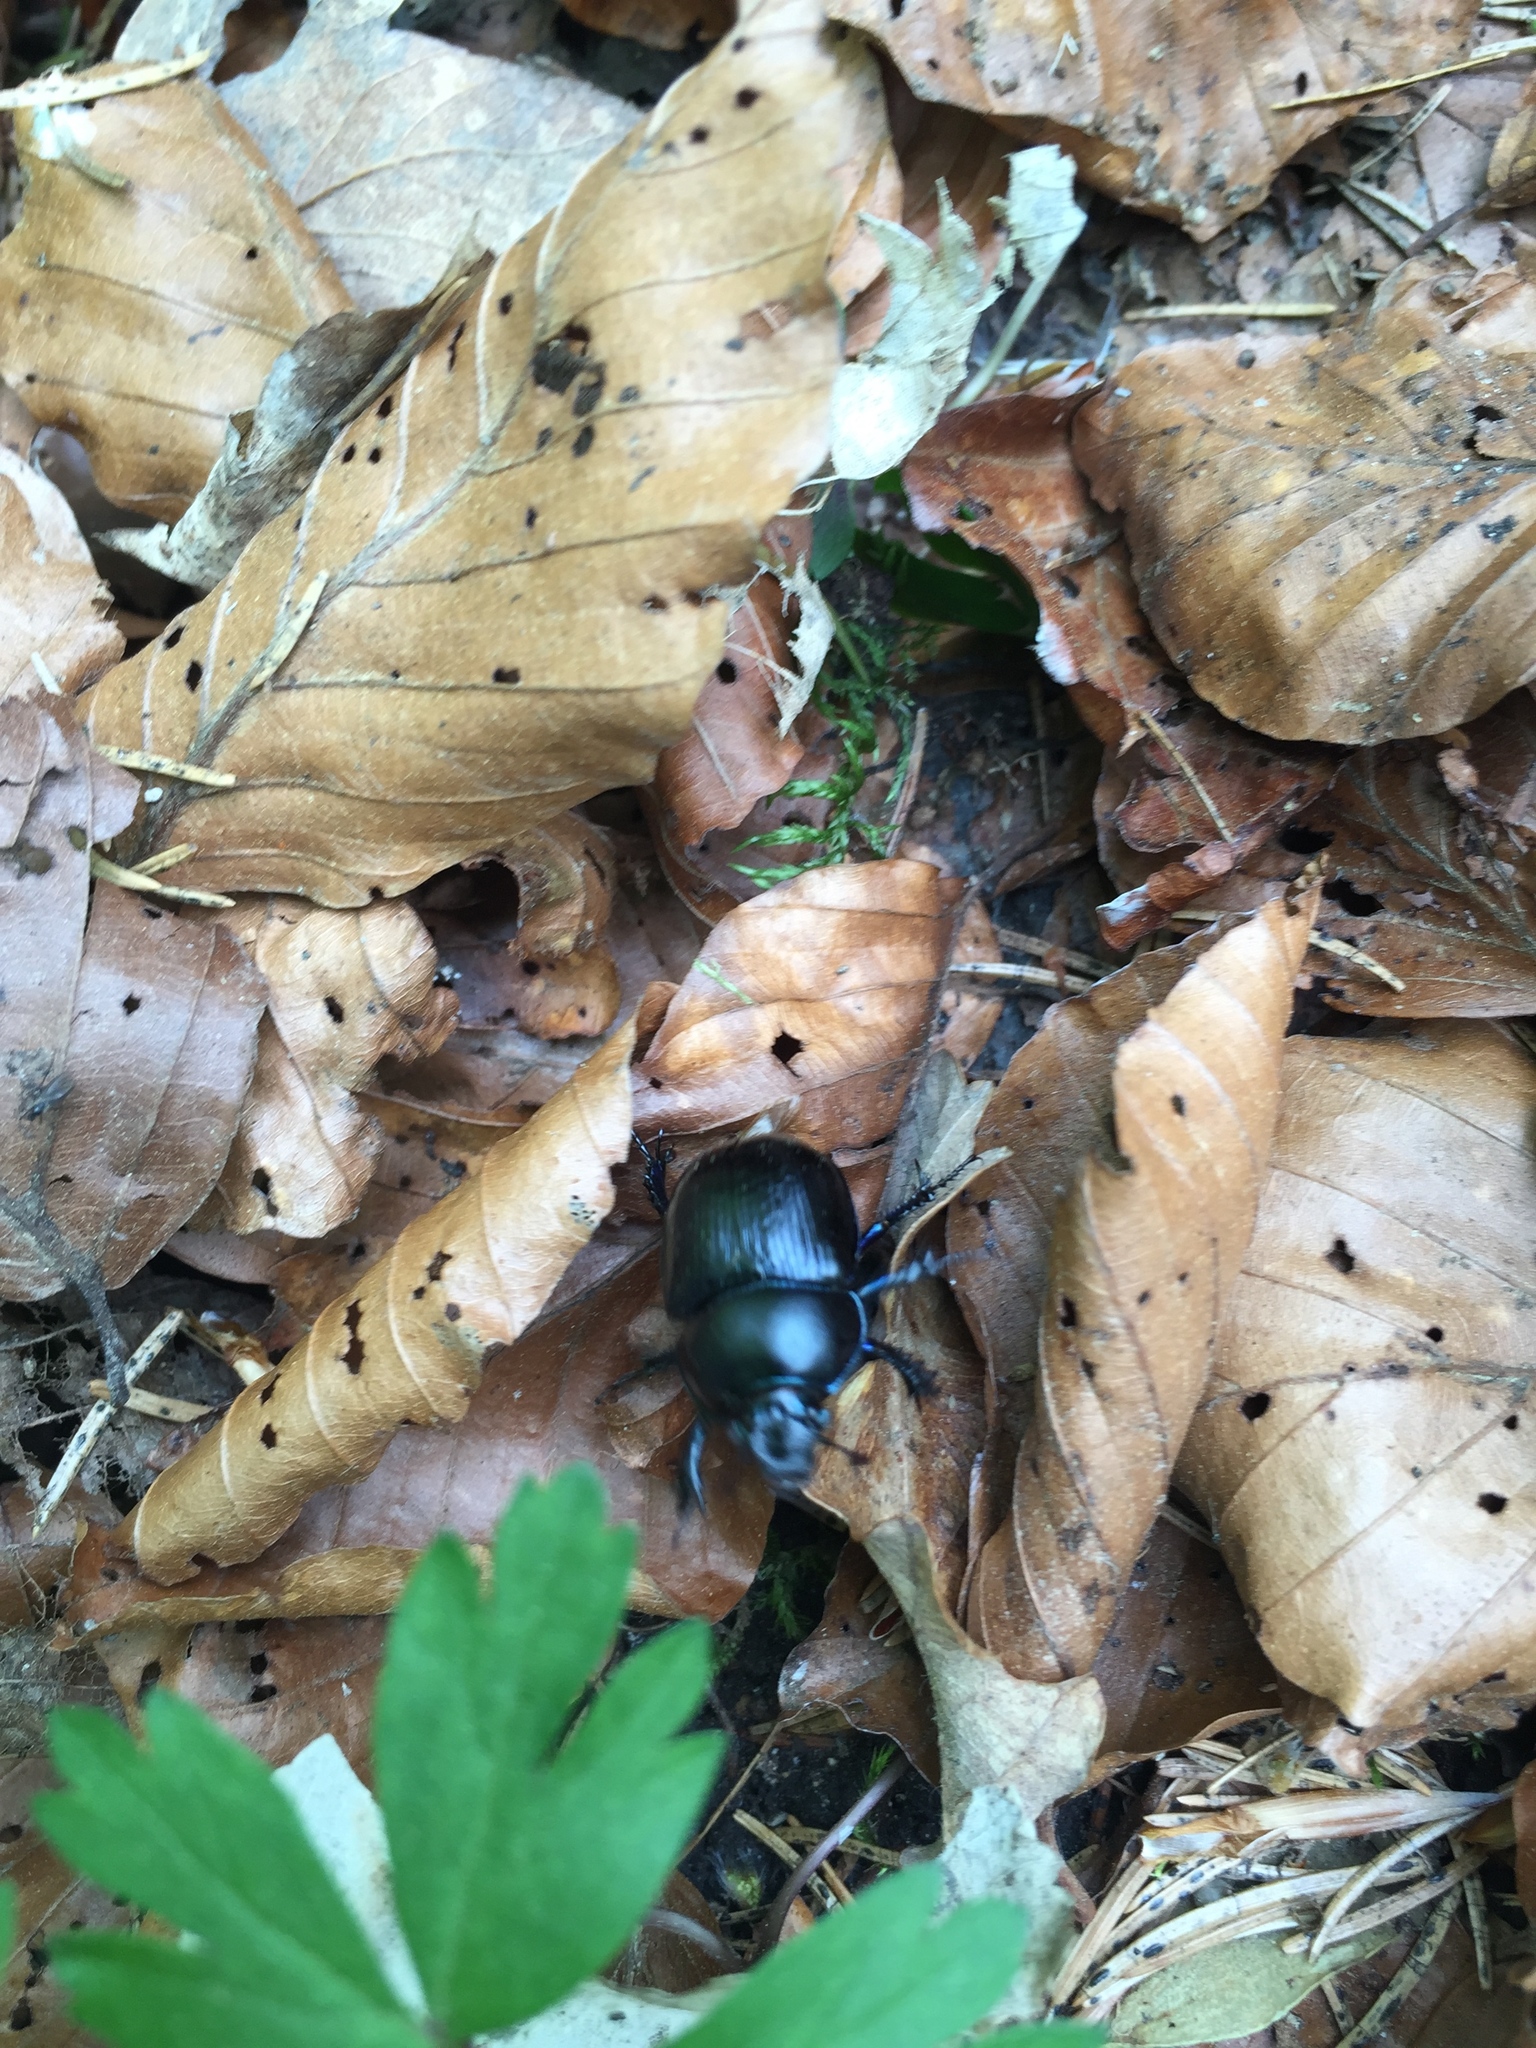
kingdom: Animalia
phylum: Arthropoda
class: Insecta
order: Coleoptera
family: Geotrupidae
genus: Anoplotrupes
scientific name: Anoplotrupes stercorosus
